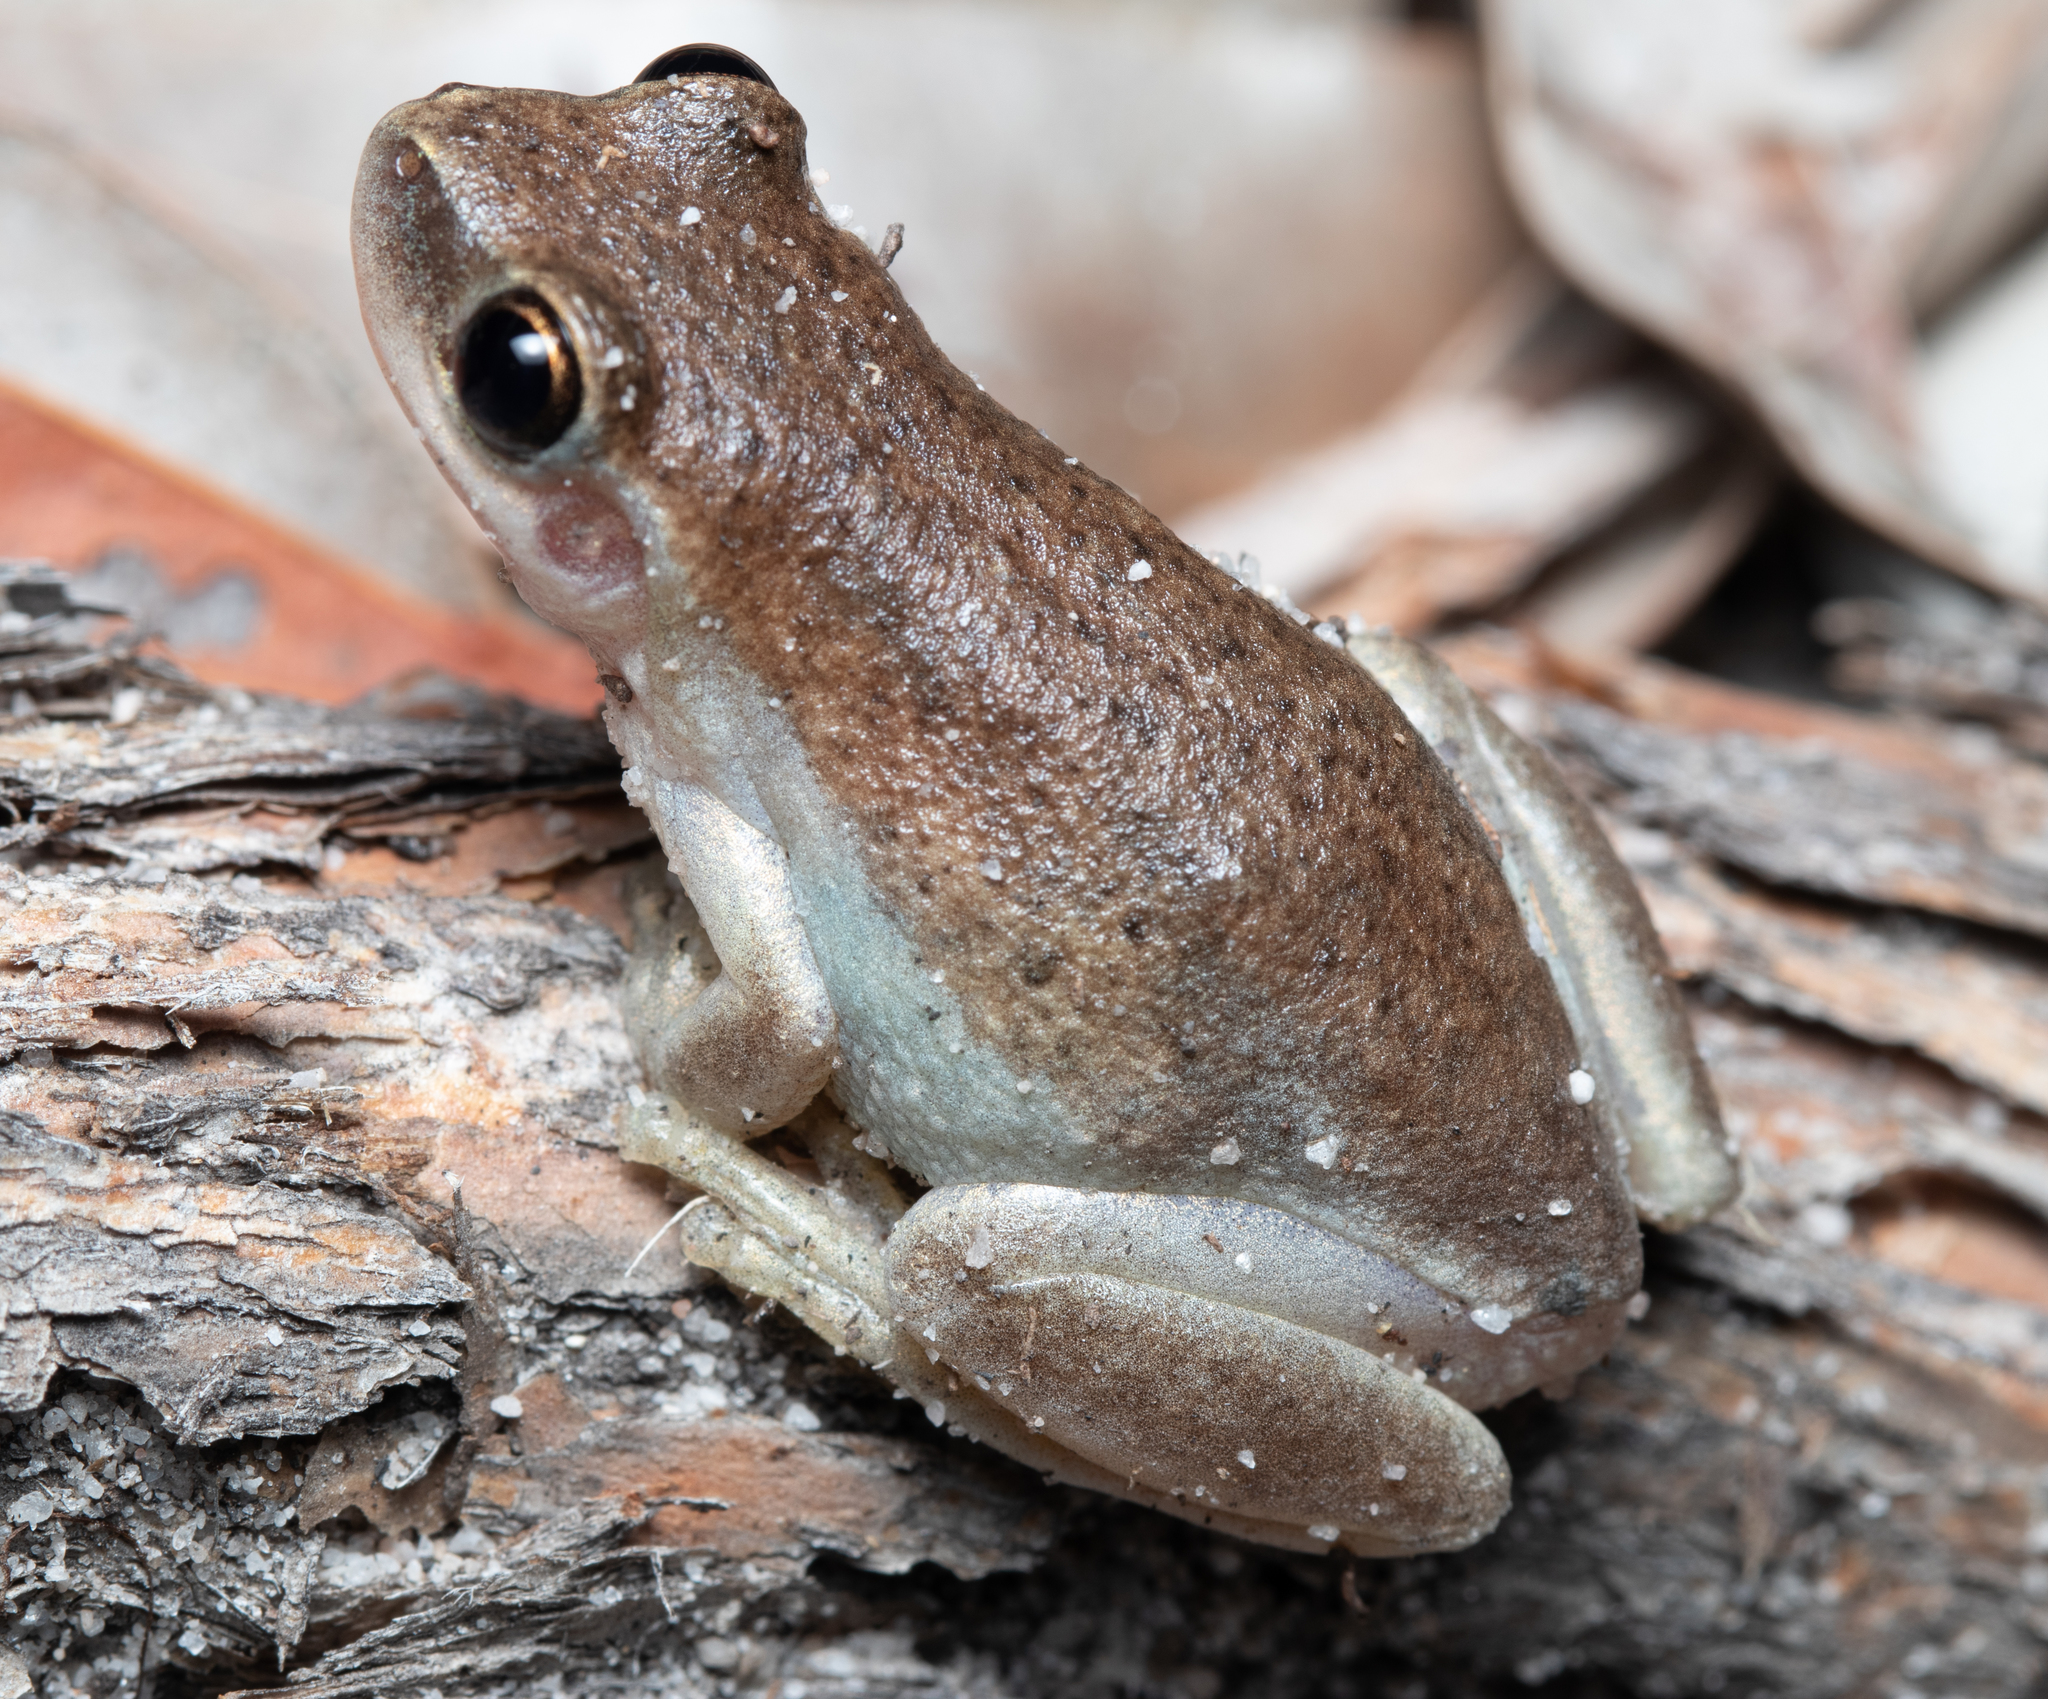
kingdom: Animalia
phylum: Chordata
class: Amphibia
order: Anura
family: Pelodryadidae
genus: Litoria
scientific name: Litoria rubella
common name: Desert tree frog
